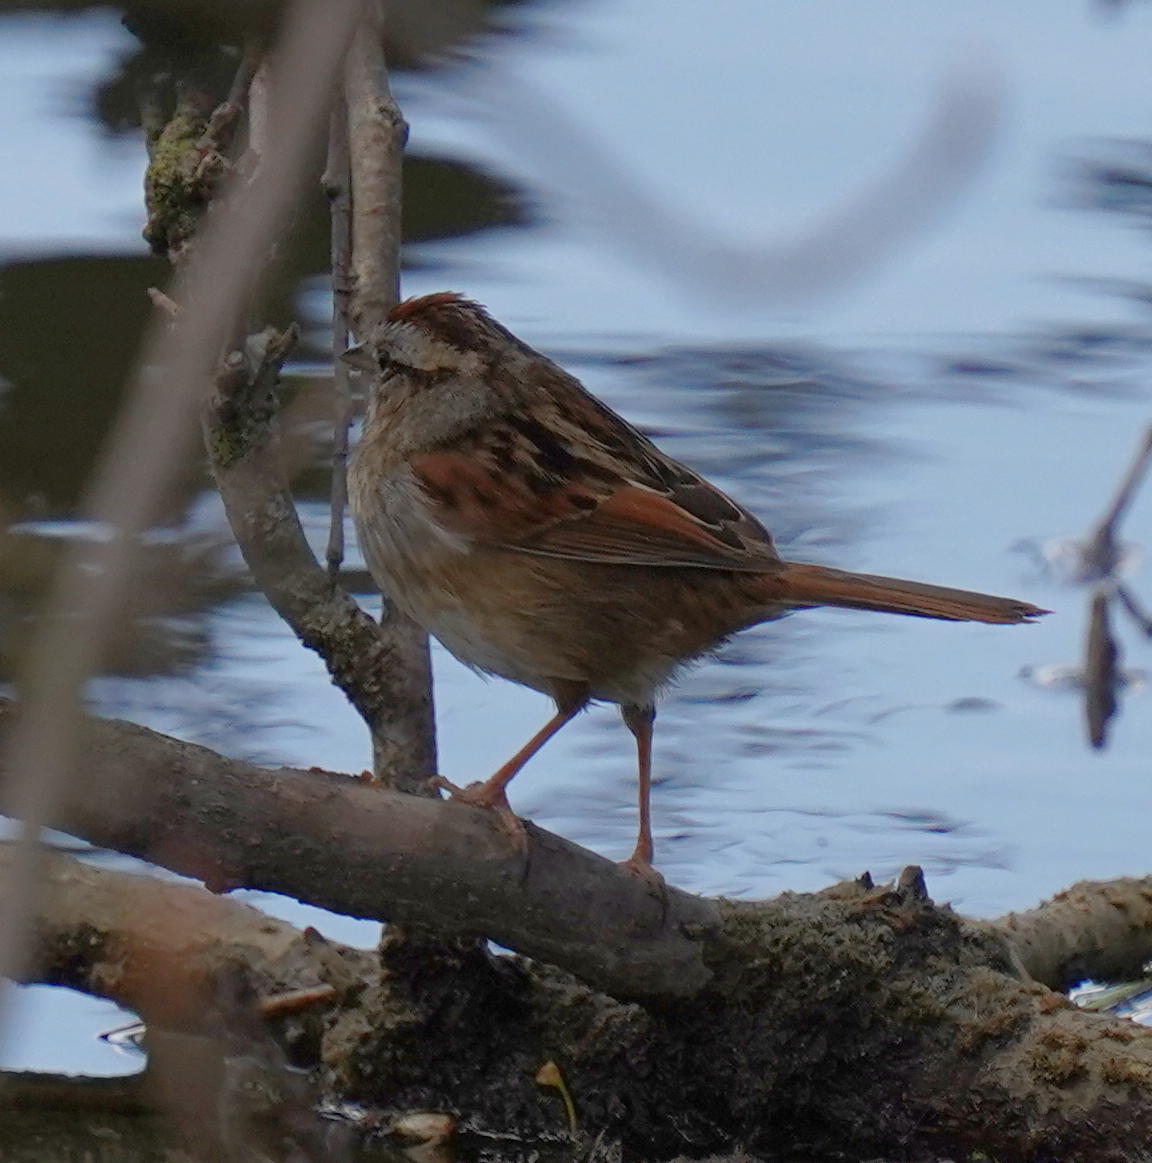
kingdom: Animalia
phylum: Chordata
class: Aves
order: Passeriformes
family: Passerellidae
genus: Melospiza
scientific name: Melospiza georgiana
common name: Swamp sparrow
